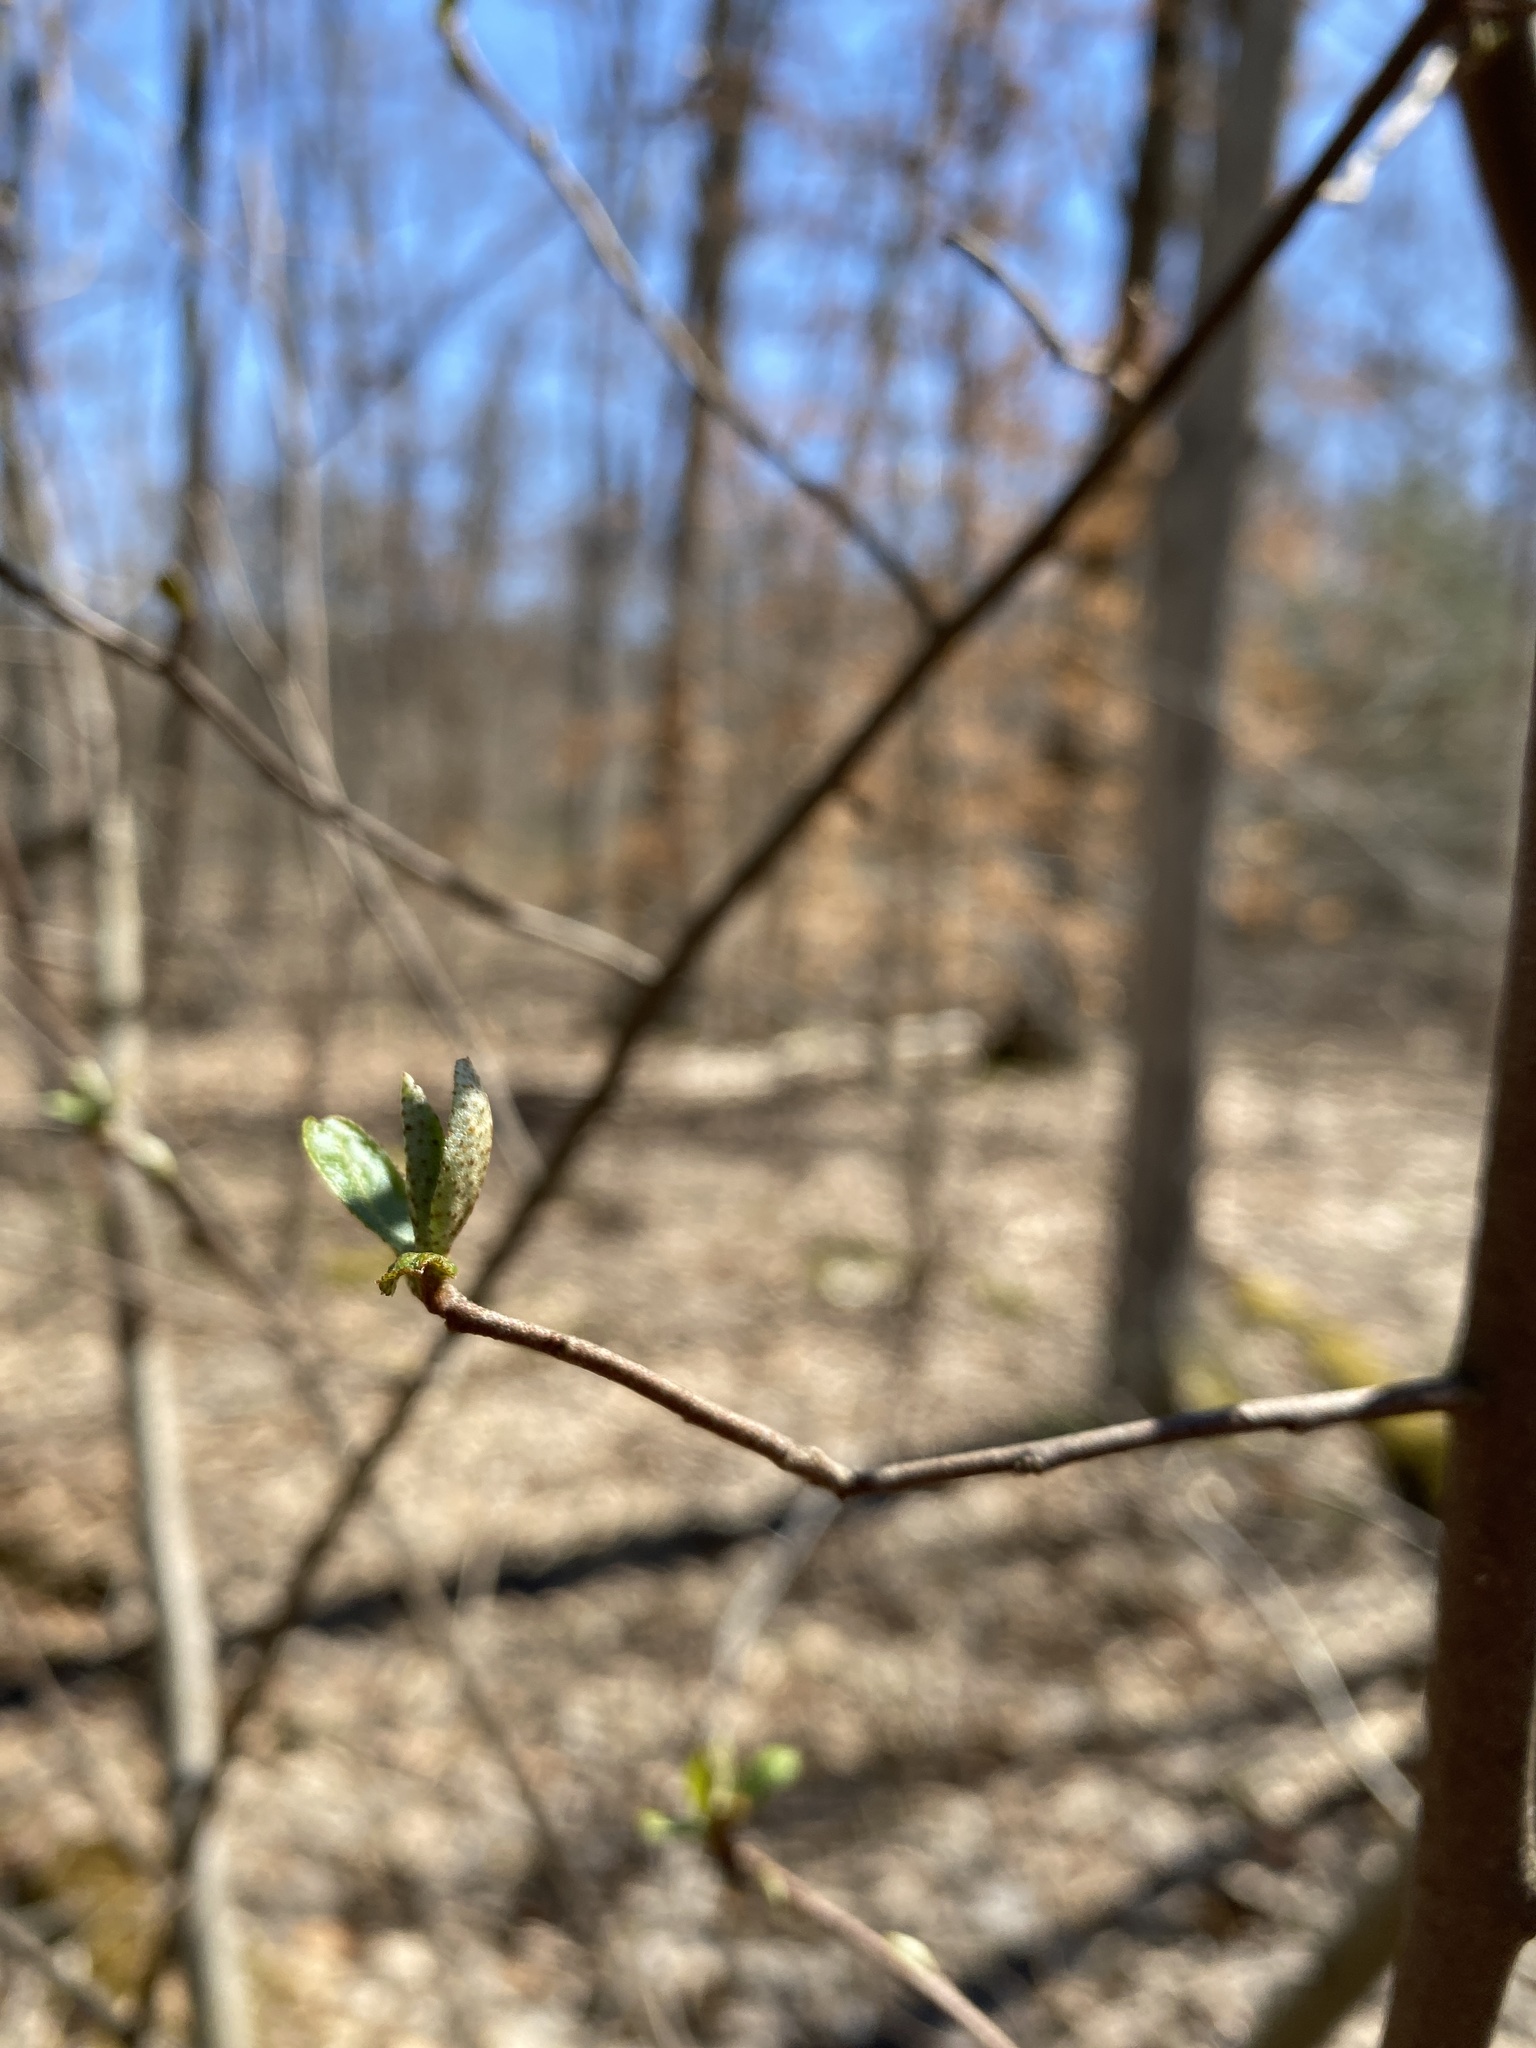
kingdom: Plantae
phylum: Tracheophyta
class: Magnoliopsida
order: Rosales
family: Elaeagnaceae
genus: Elaeagnus
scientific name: Elaeagnus umbellata
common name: Autumn olive
